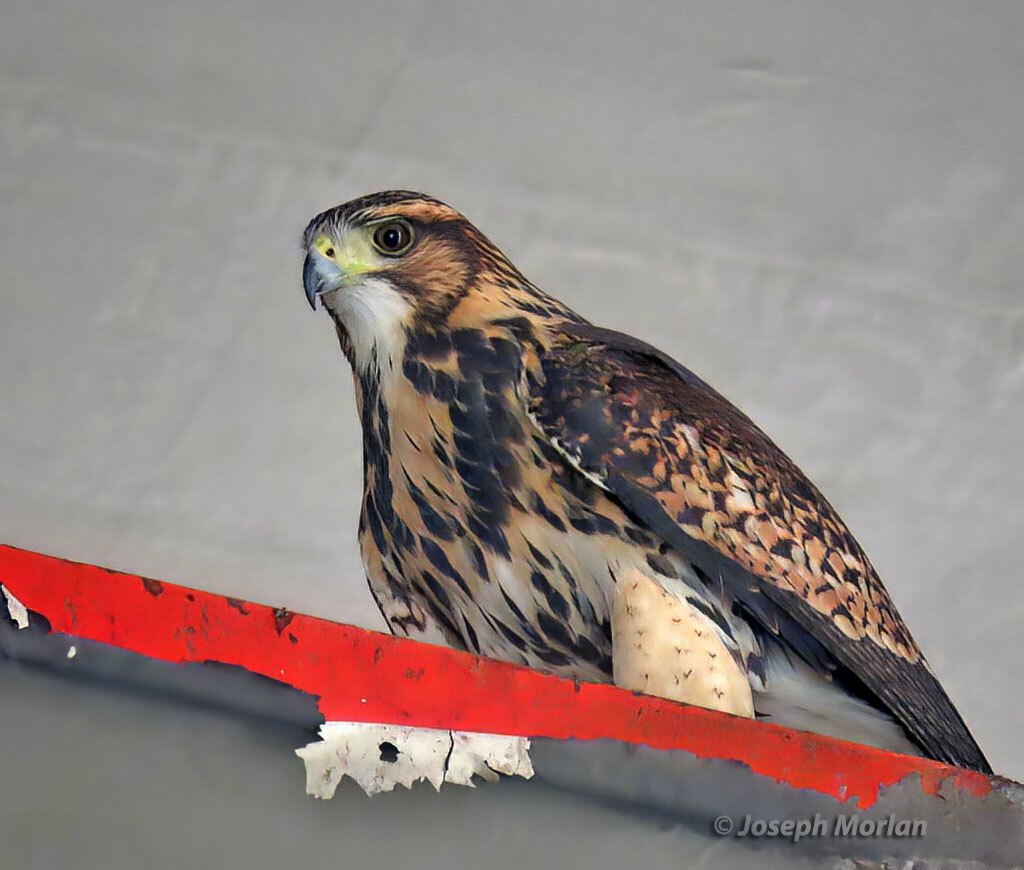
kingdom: Animalia
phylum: Chordata
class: Aves
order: Accipitriformes
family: Accipitridae
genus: Parabuteo
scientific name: Parabuteo unicinctus
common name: Harris's hawk
